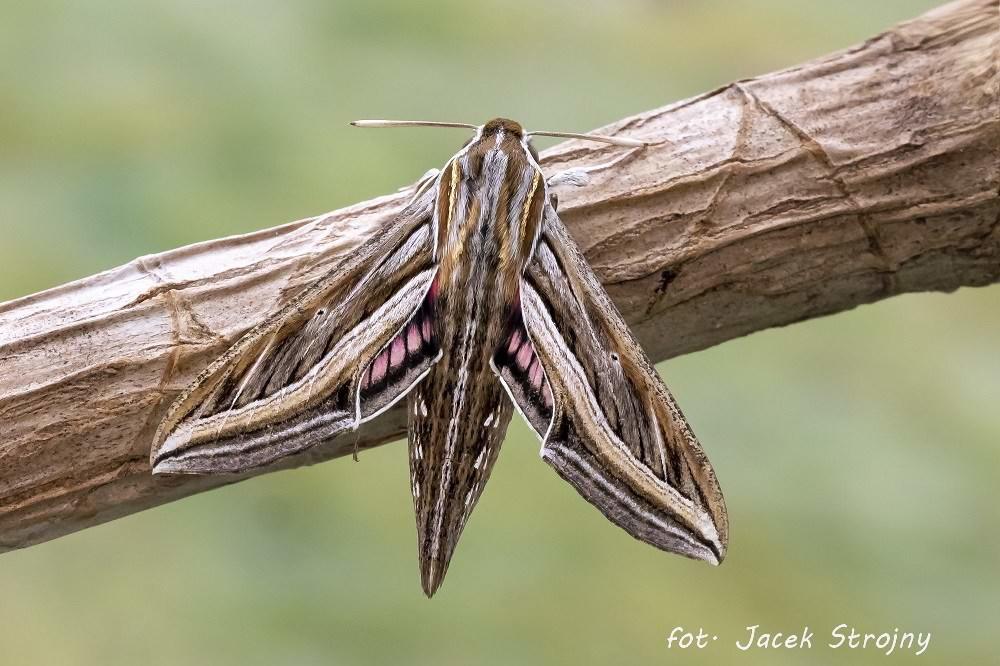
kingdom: Animalia
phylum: Arthropoda
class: Insecta
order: Lepidoptera
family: Sphingidae
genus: Hippotion
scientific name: Hippotion celerio
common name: Silver-striped hawk-moth
